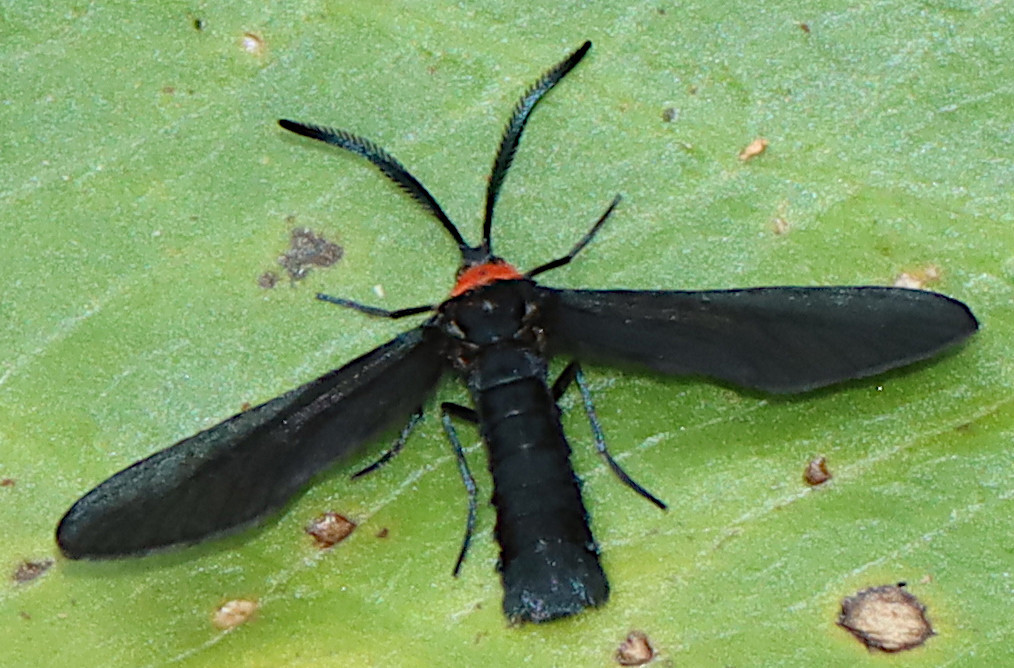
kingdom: Animalia
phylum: Arthropoda
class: Insecta
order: Lepidoptera
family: Zygaenidae
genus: Harrisina
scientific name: Harrisina americana
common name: Grapeleaf skeletonizer moth
